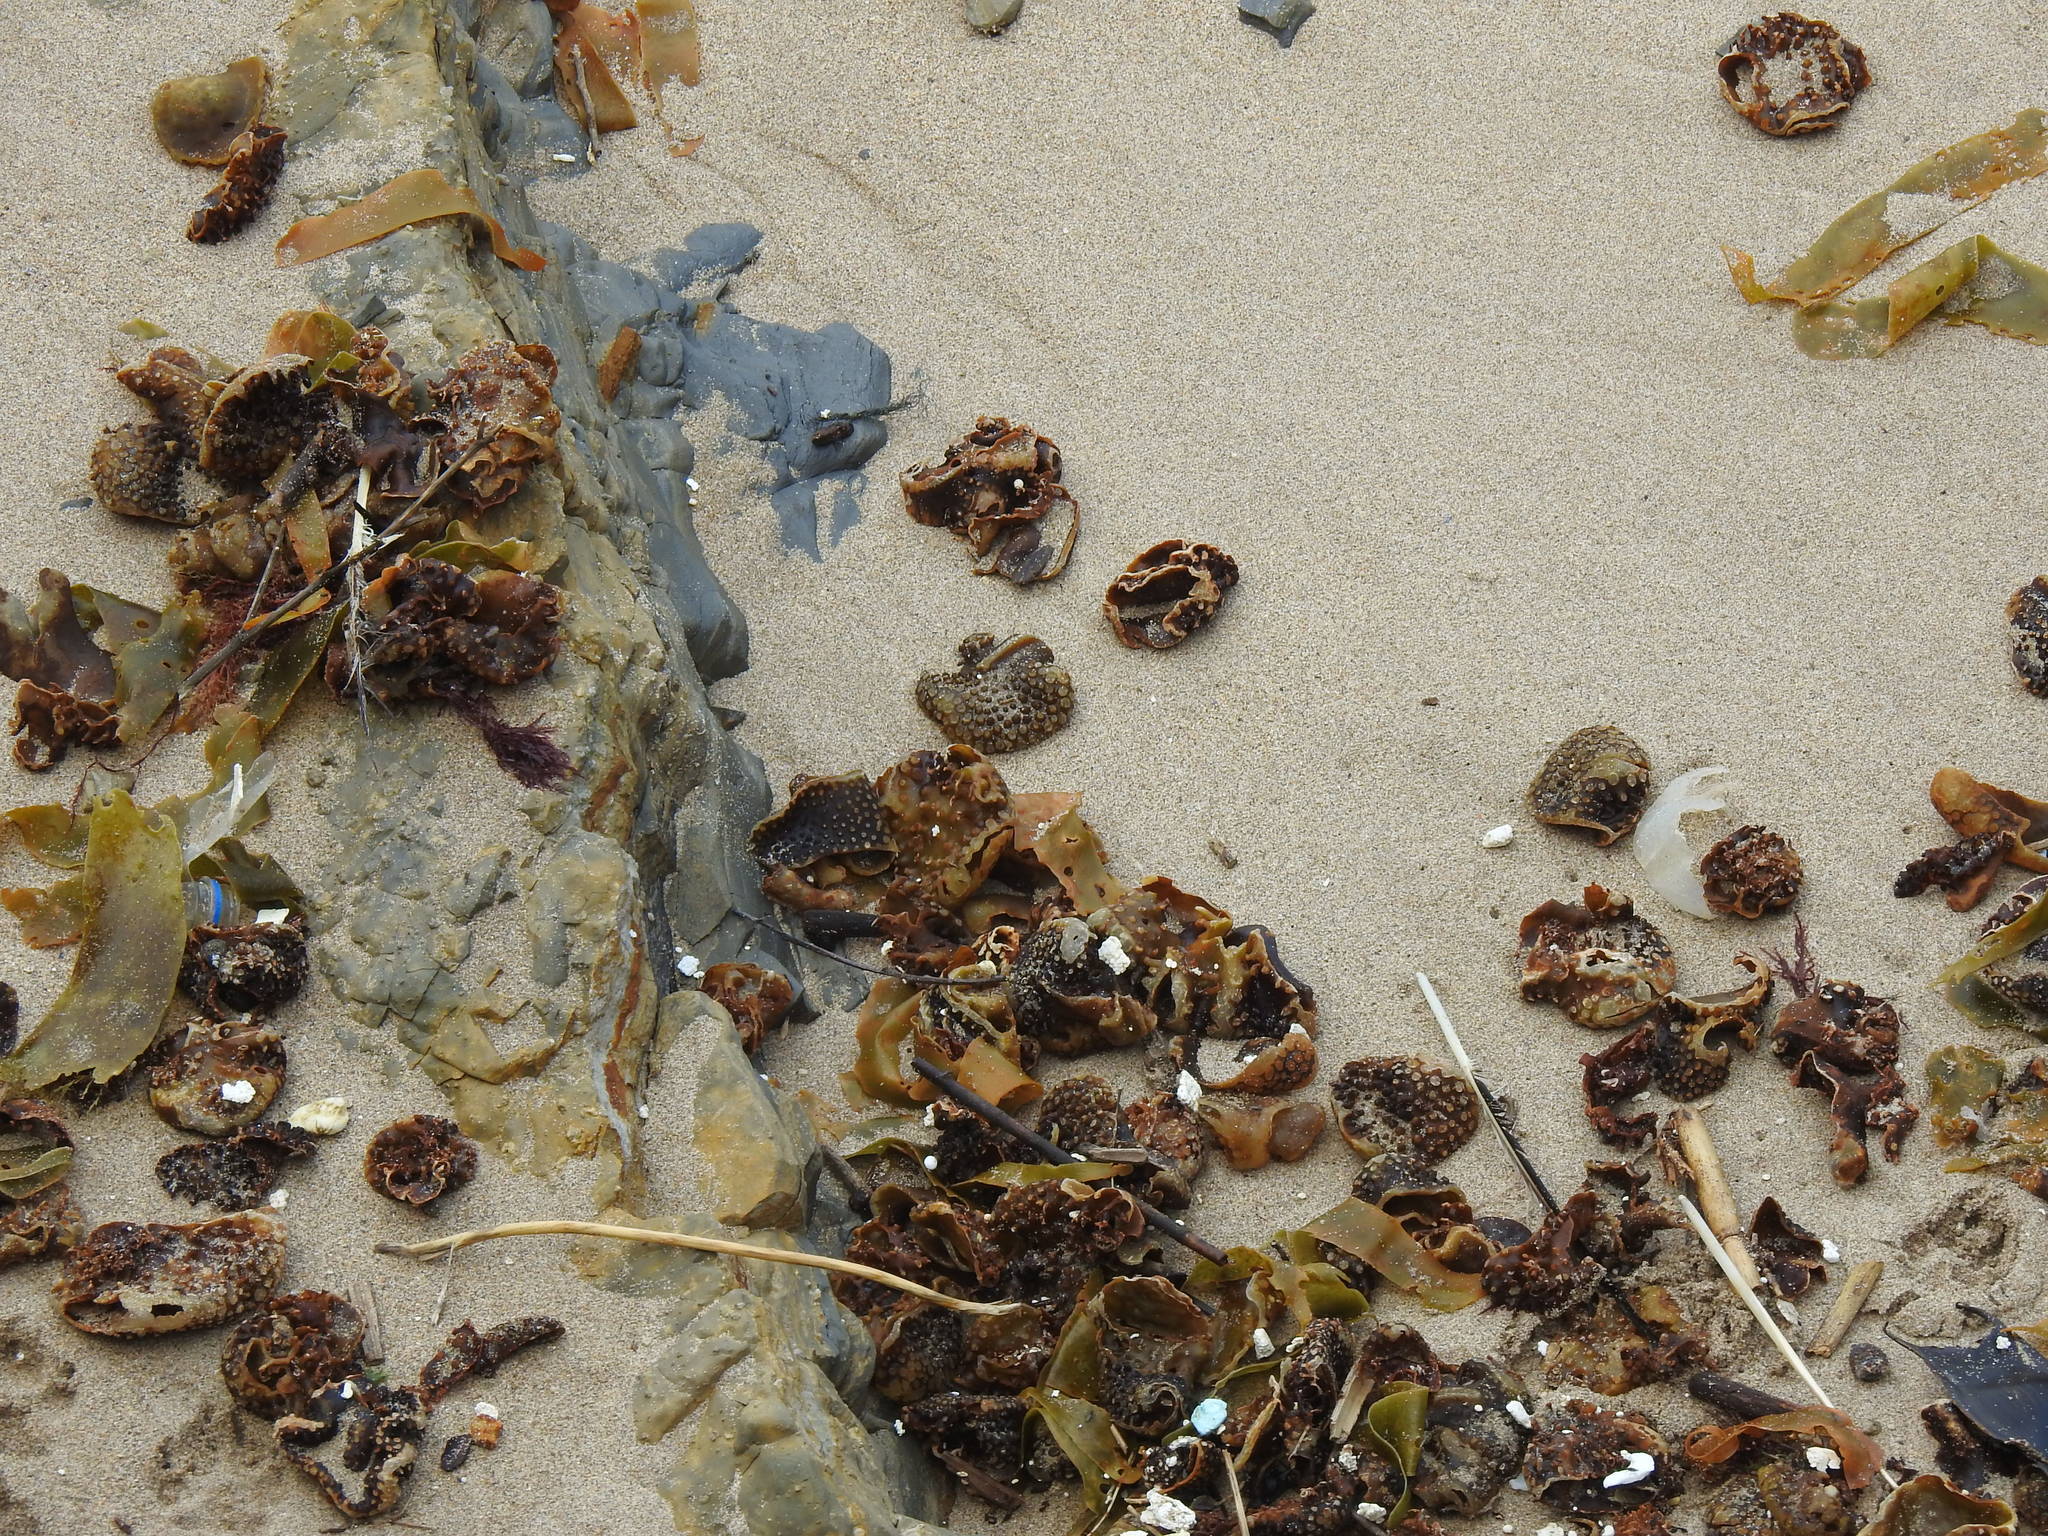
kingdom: Chromista
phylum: Ochrophyta
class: Phaeophyceae
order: Tilopteridales
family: Phyllariaceae
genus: Saccorhiza
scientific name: Saccorhiza polyschides
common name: Furbelows
